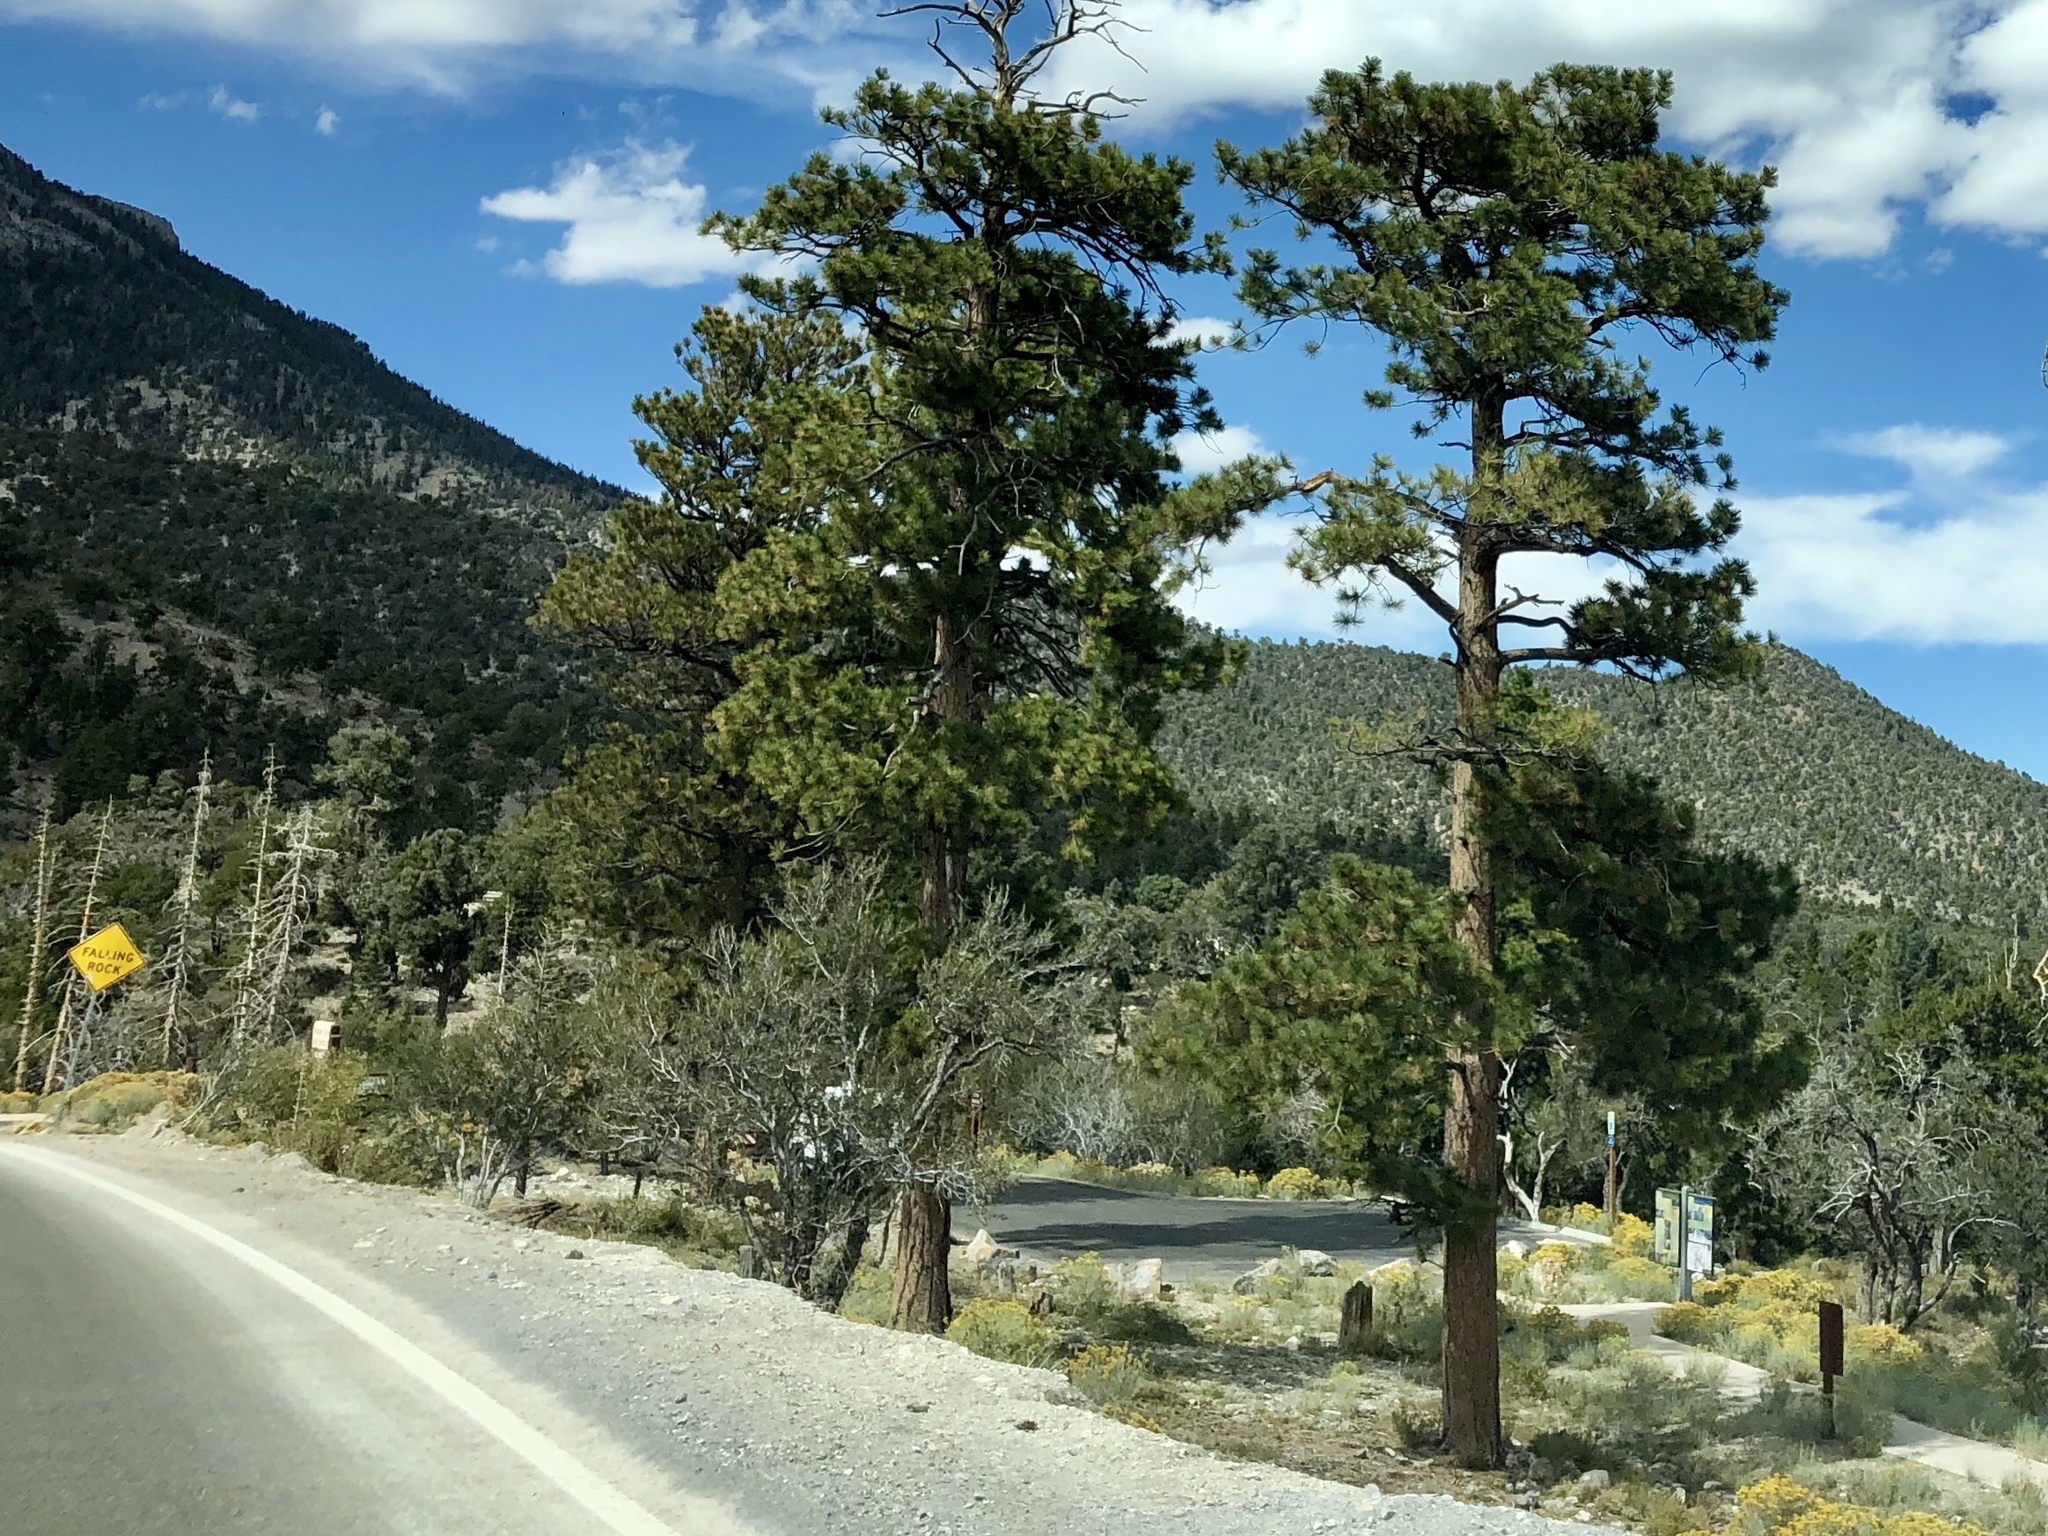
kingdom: Plantae
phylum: Tracheophyta
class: Pinopsida
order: Pinales
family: Pinaceae
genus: Pinus
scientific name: Pinus ponderosa
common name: Western yellow-pine
